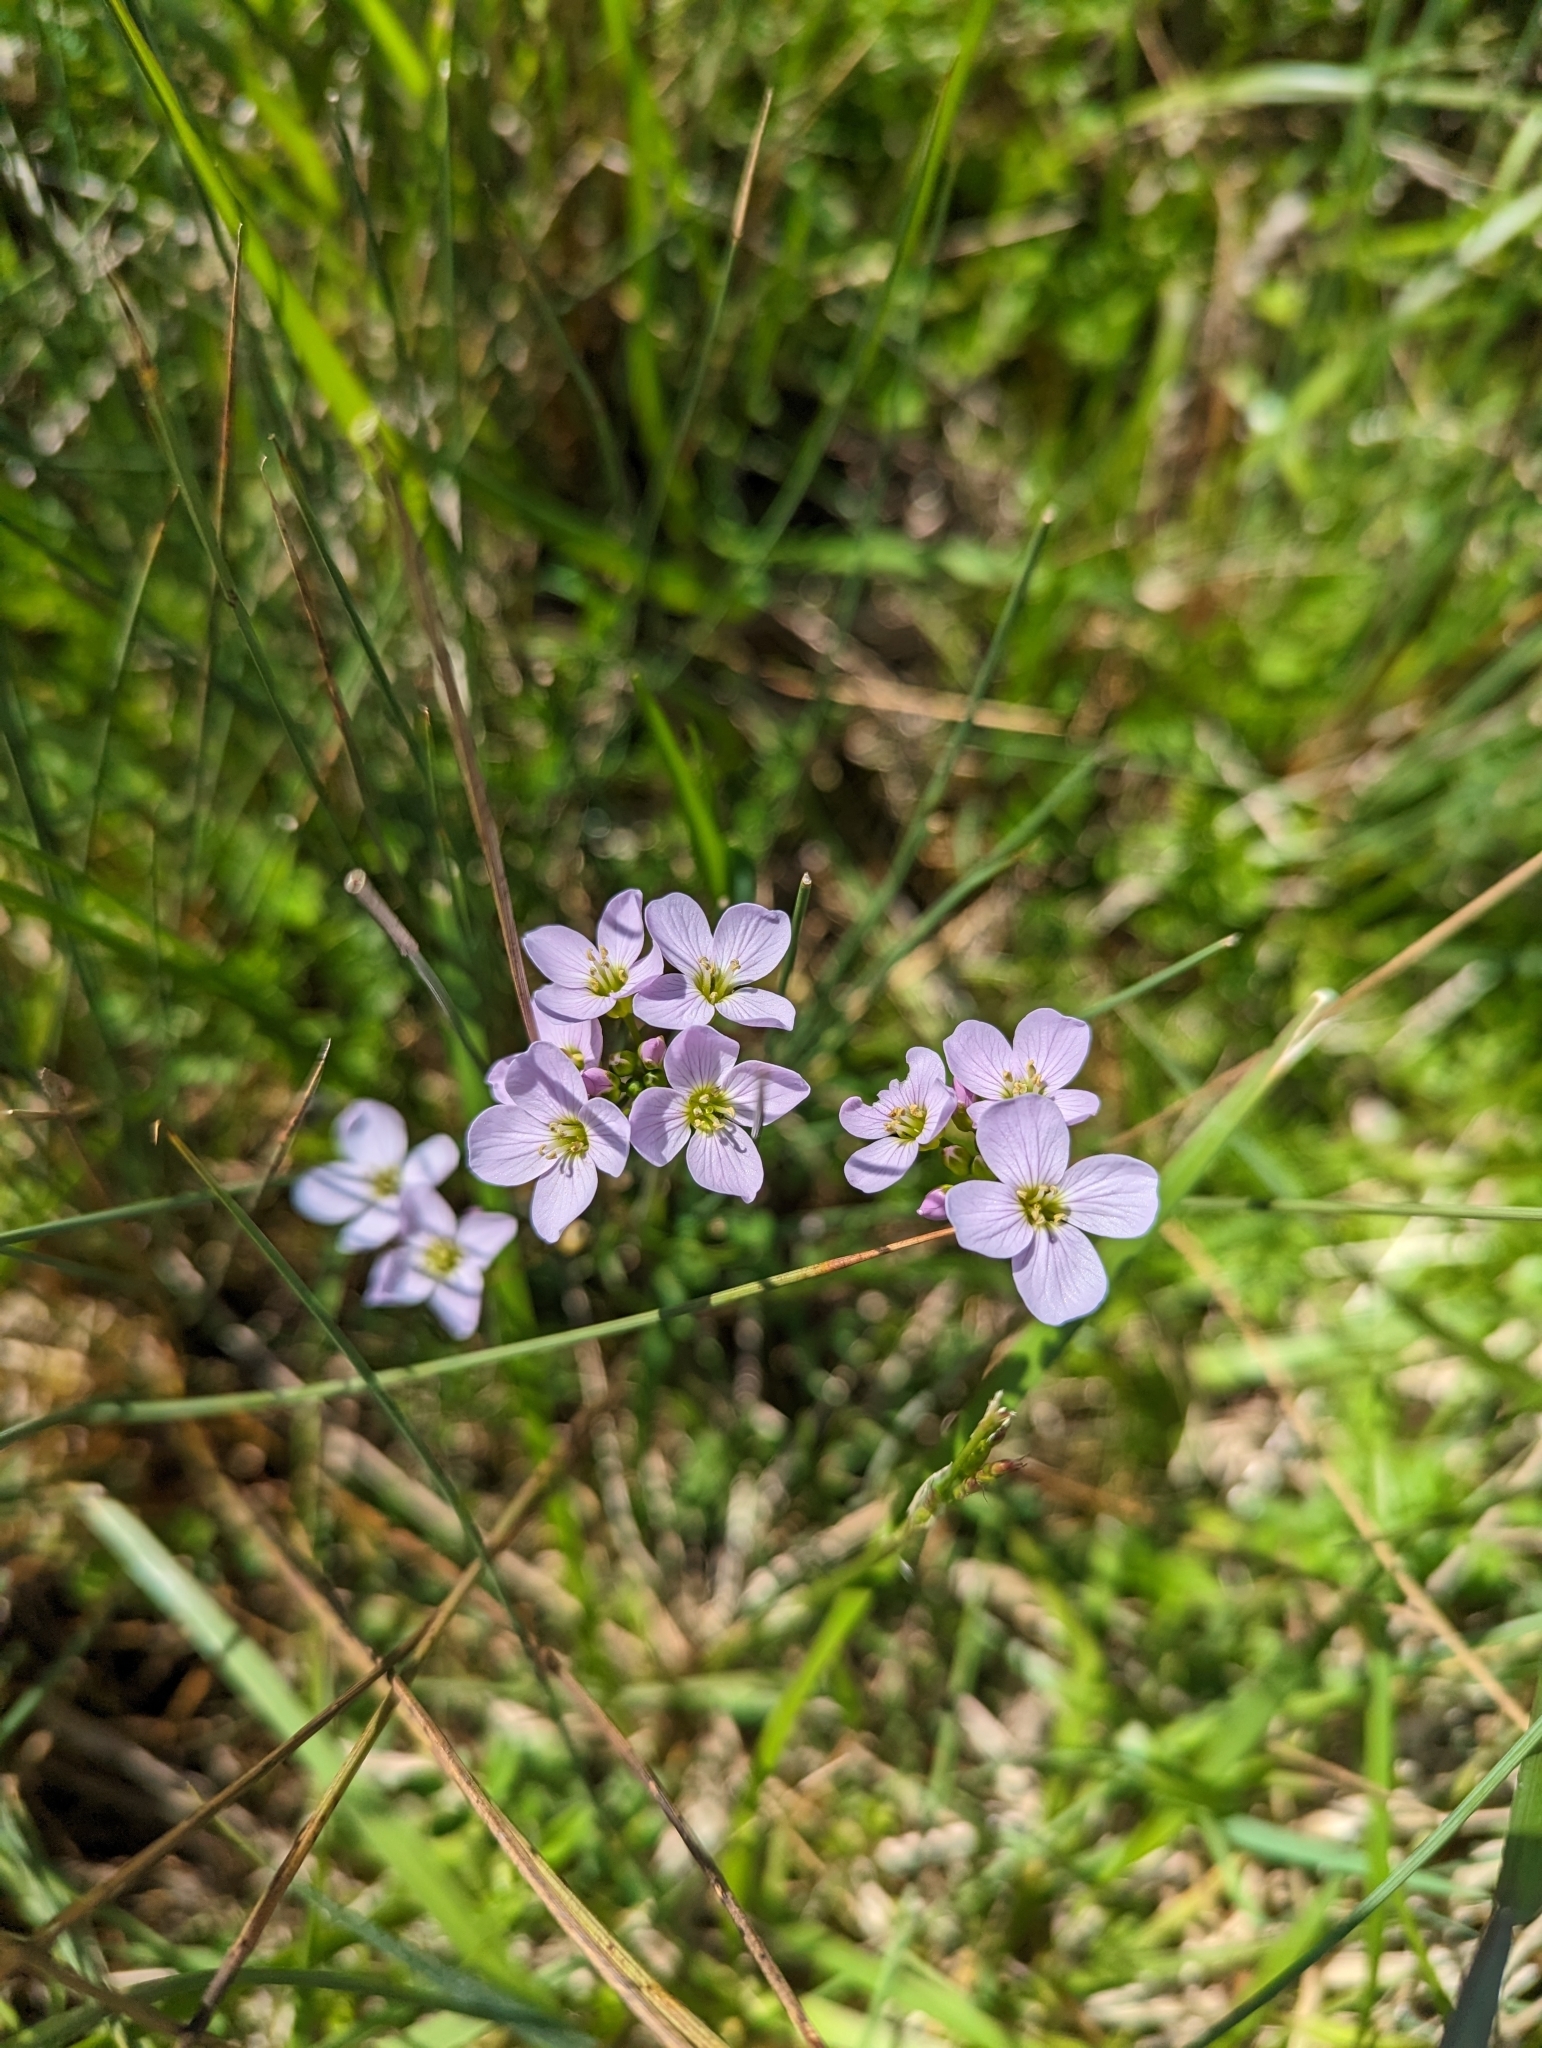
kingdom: Plantae
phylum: Tracheophyta
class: Magnoliopsida
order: Brassicales
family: Brassicaceae
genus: Cardamine
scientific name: Cardamine pratensis
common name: Cuckoo flower
